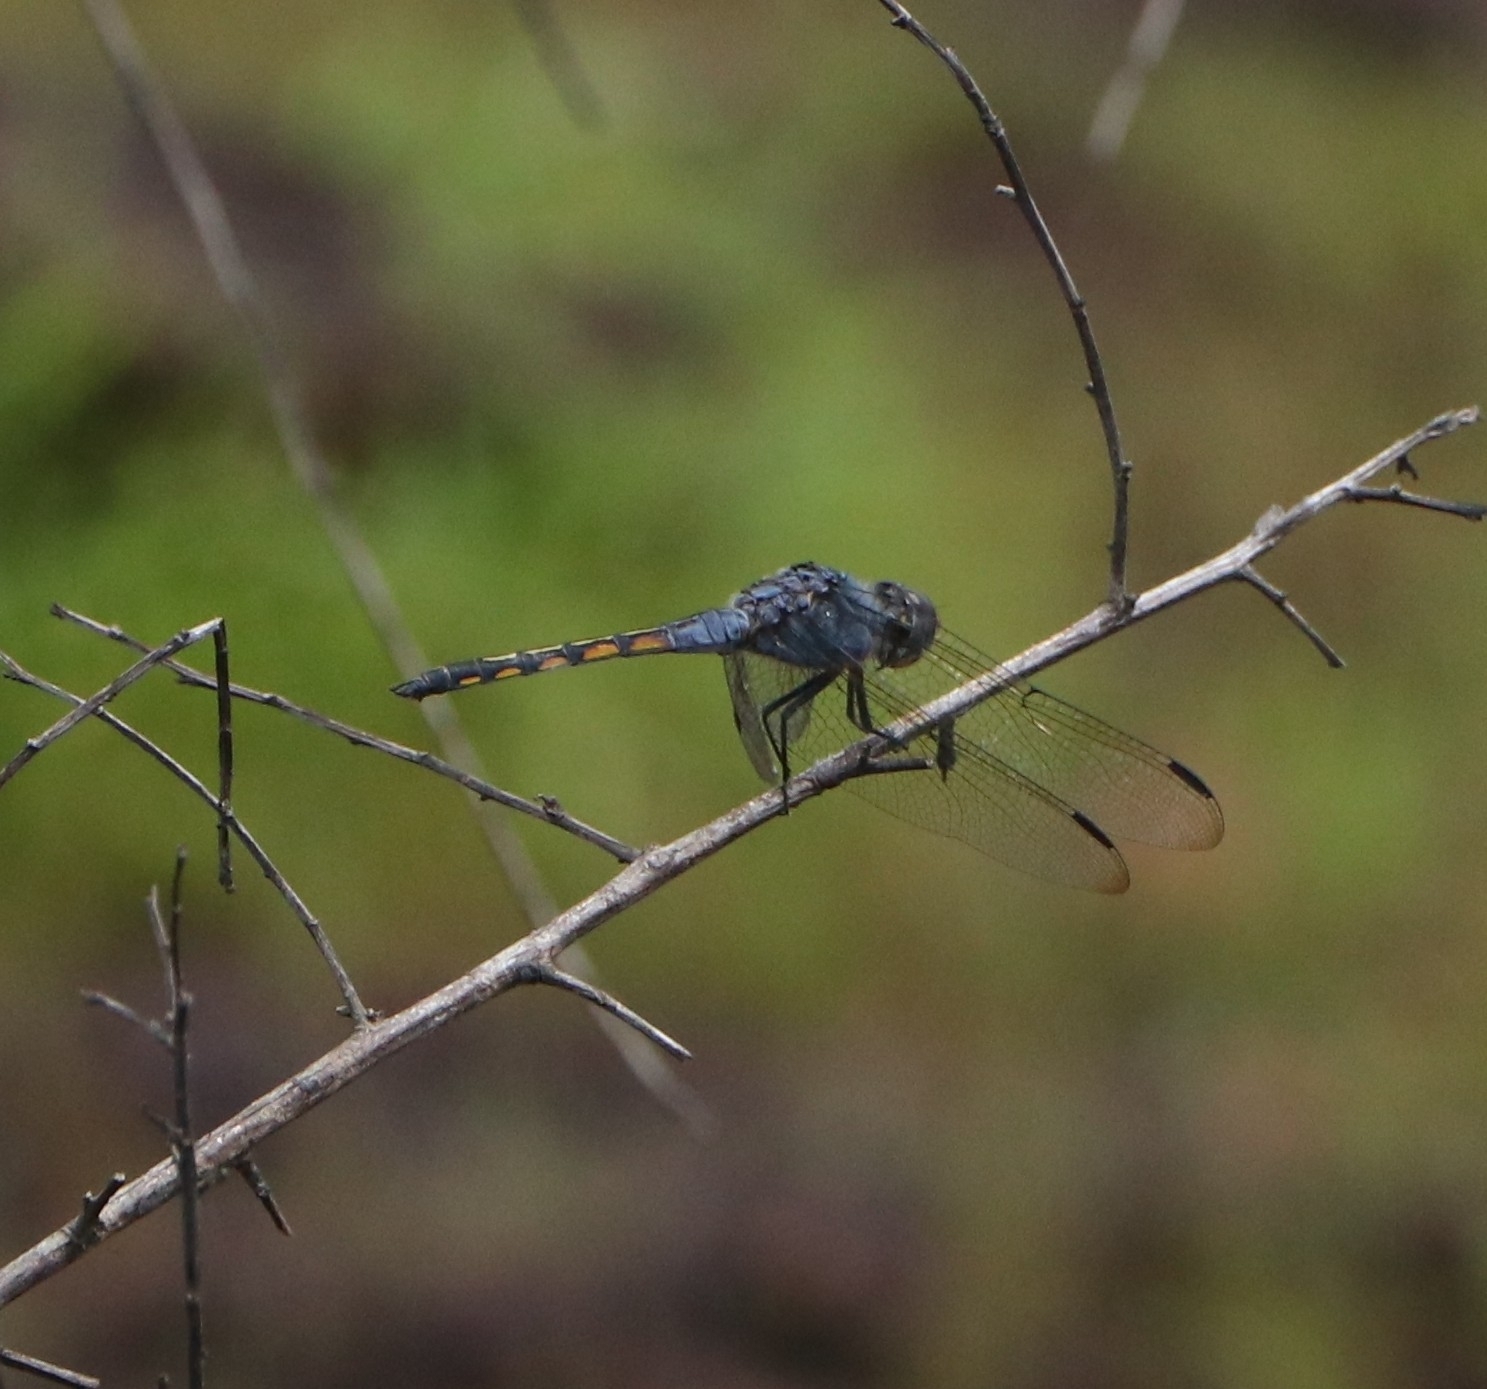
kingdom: Animalia
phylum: Arthropoda
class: Insecta
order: Odonata
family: Libellulidae
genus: Potamarcha
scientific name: Potamarcha congener
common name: Blue chaser
